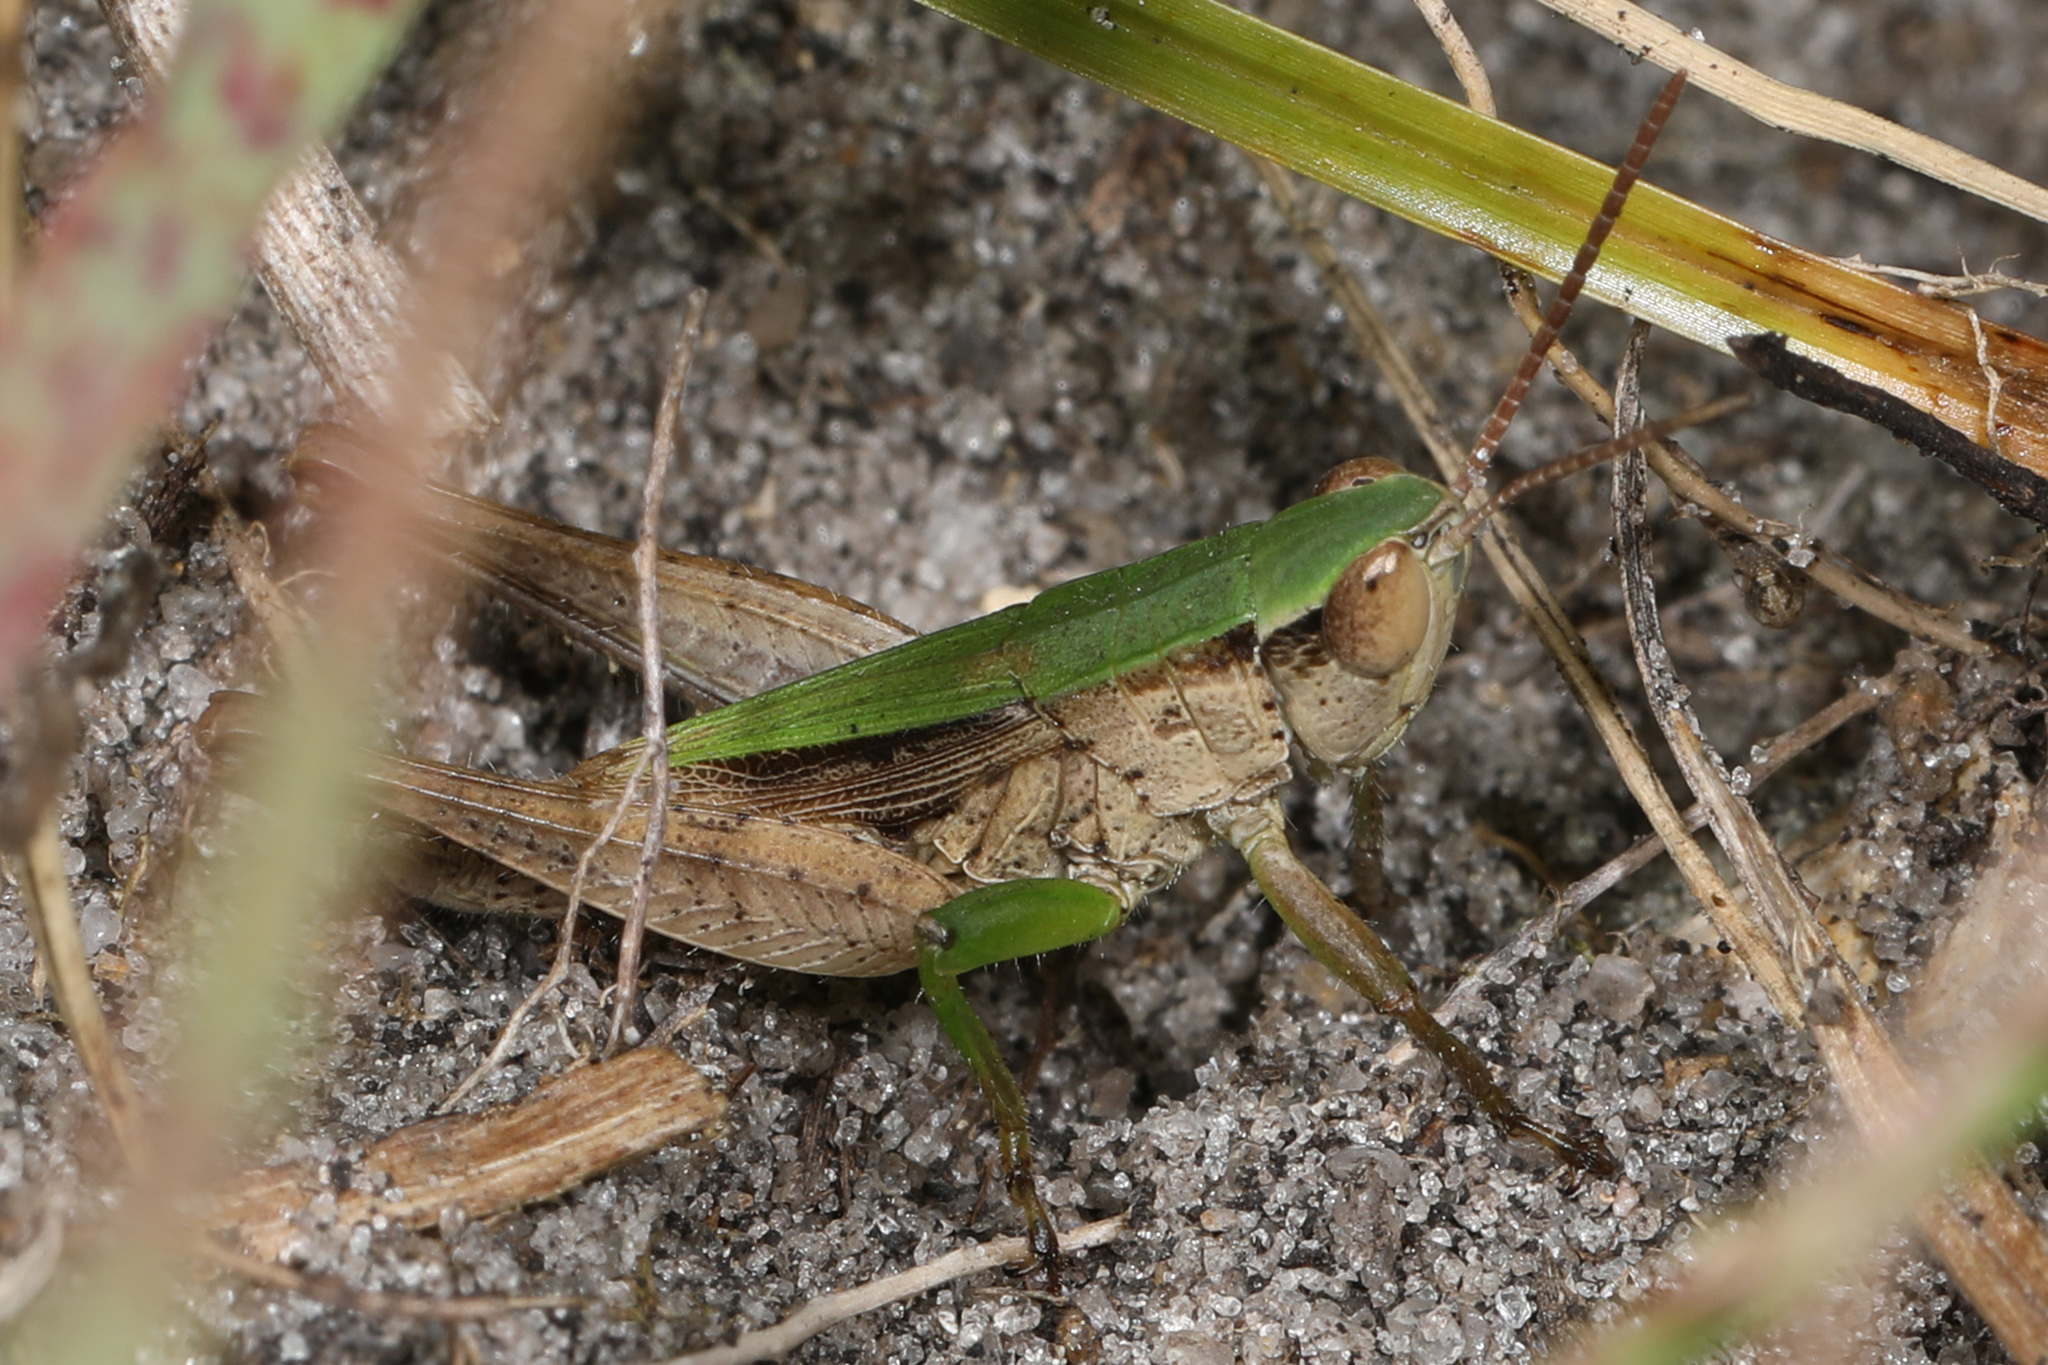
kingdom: Animalia
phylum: Arthropoda
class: Insecta
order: Orthoptera
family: Acrididae
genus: Dichromorpha
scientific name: Dichromorpha viridis
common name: Short-winged green grasshopper
